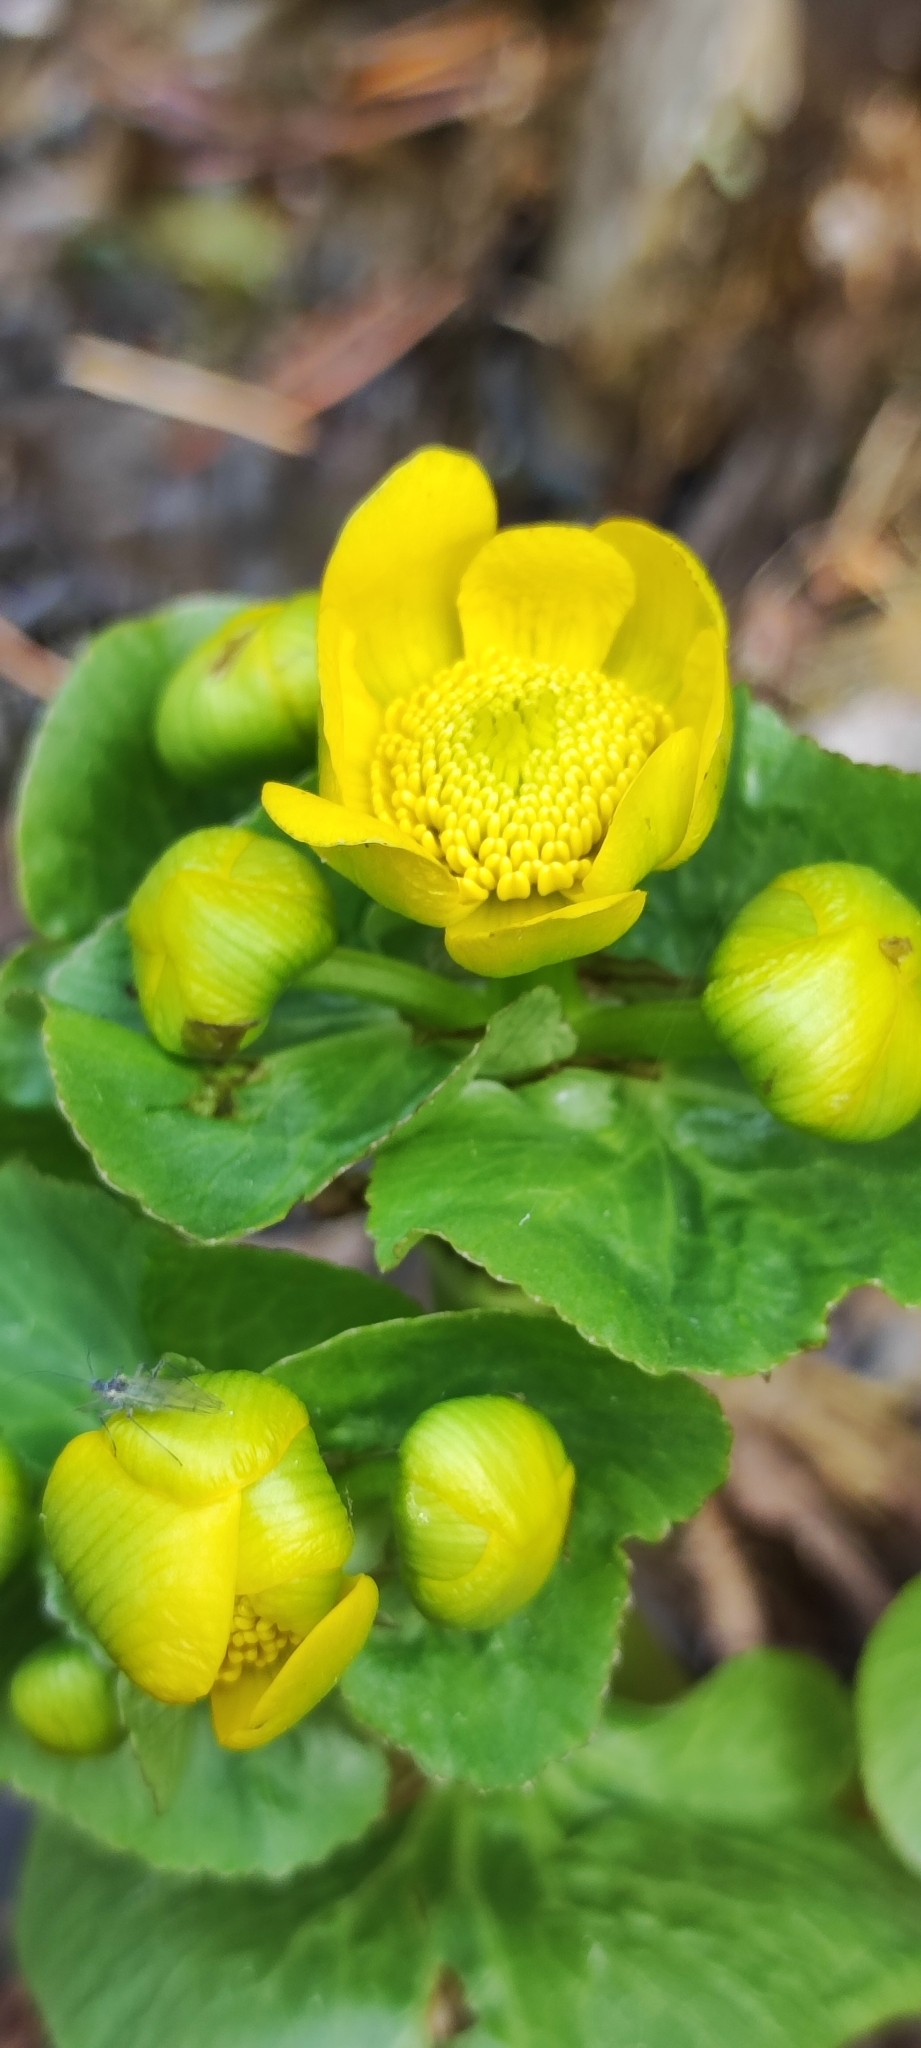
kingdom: Plantae
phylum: Tracheophyta
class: Magnoliopsida
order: Ranunculales
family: Ranunculaceae
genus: Caltha
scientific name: Caltha palustris
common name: Marsh marigold
